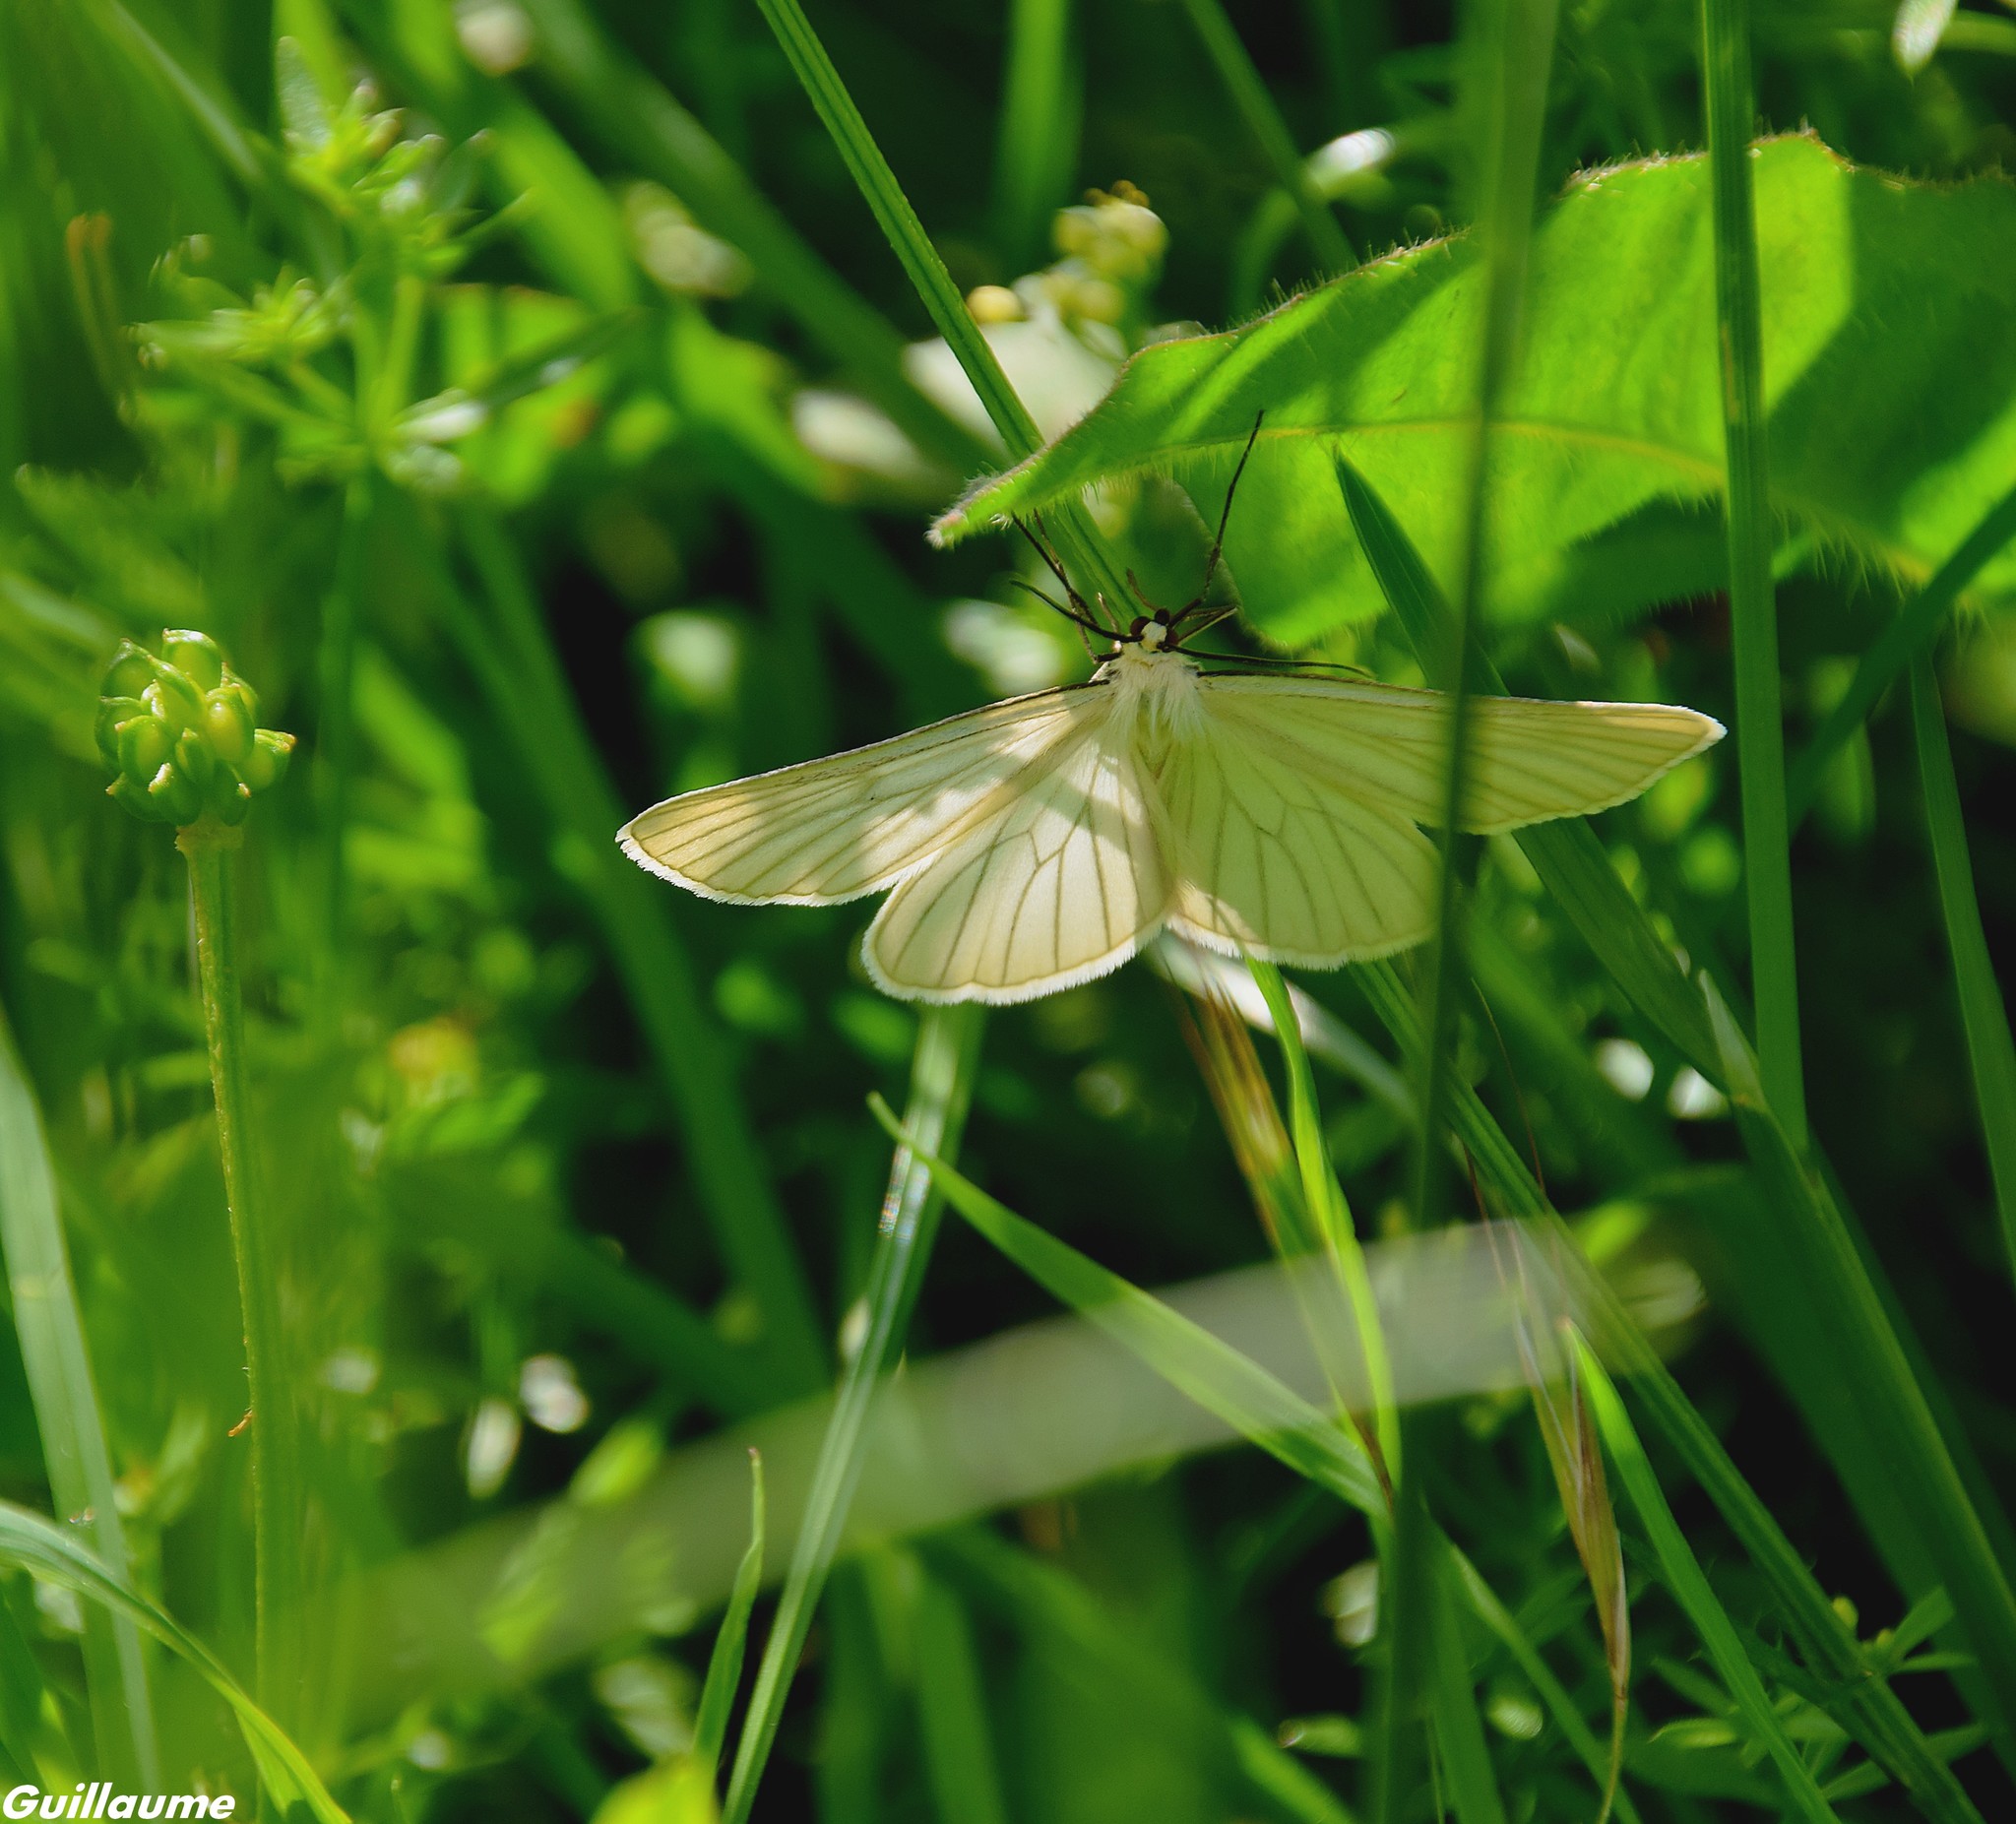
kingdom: Animalia
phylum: Arthropoda
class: Insecta
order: Lepidoptera
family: Geometridae
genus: Siona
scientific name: Siona lineata
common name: Black-veined moth
